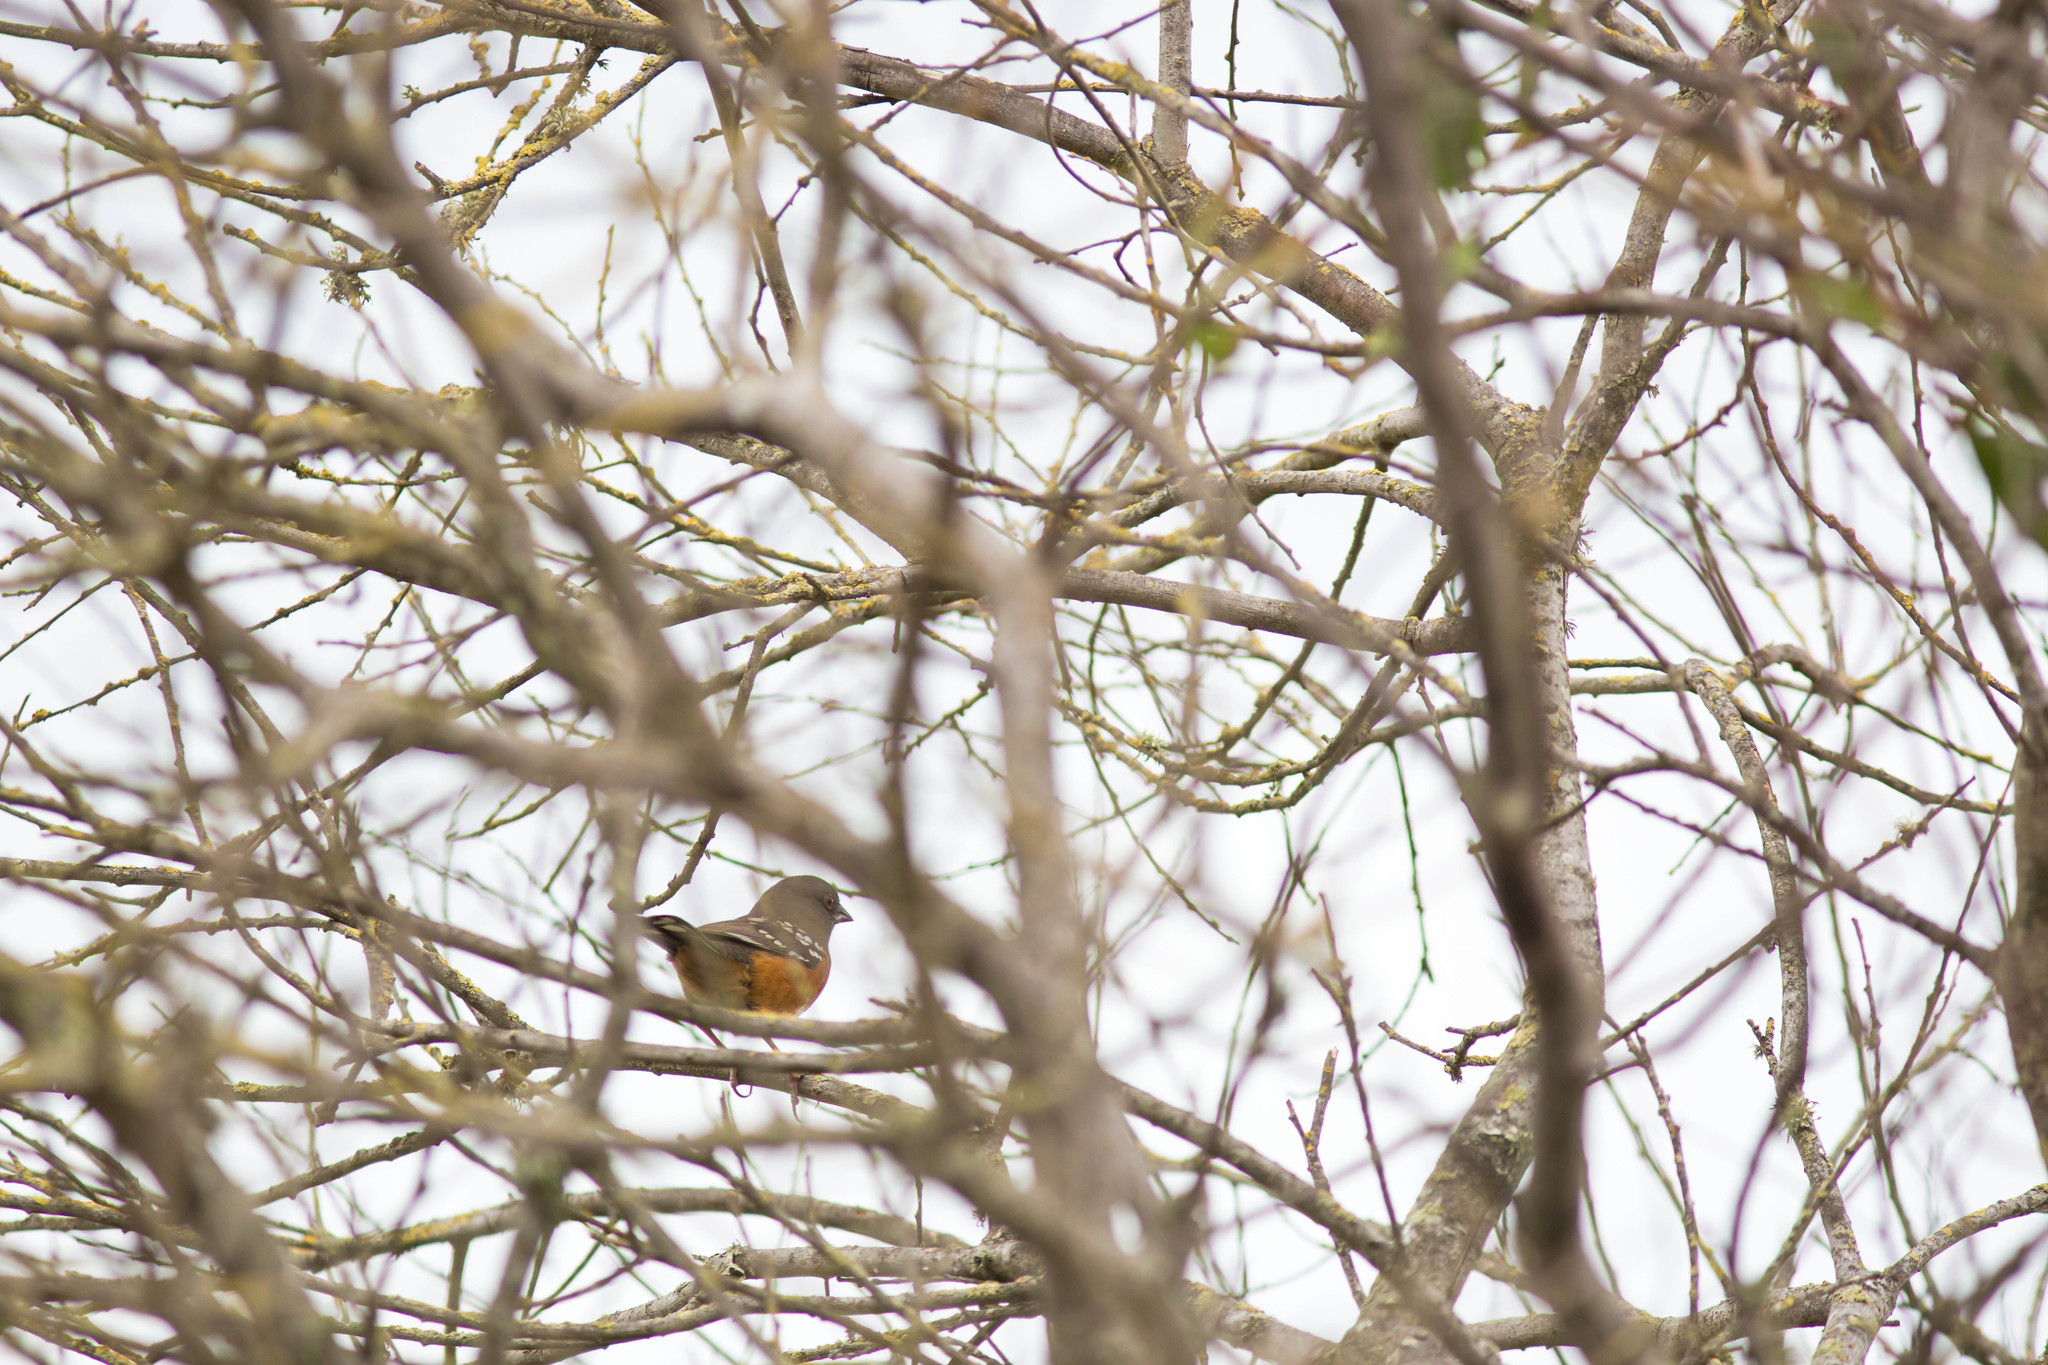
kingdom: Animalia
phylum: Chordata
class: Aves
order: Passeriformes
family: Passerellidae
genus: Pipilo
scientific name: Pipilo maculatus
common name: Spotted towhee
